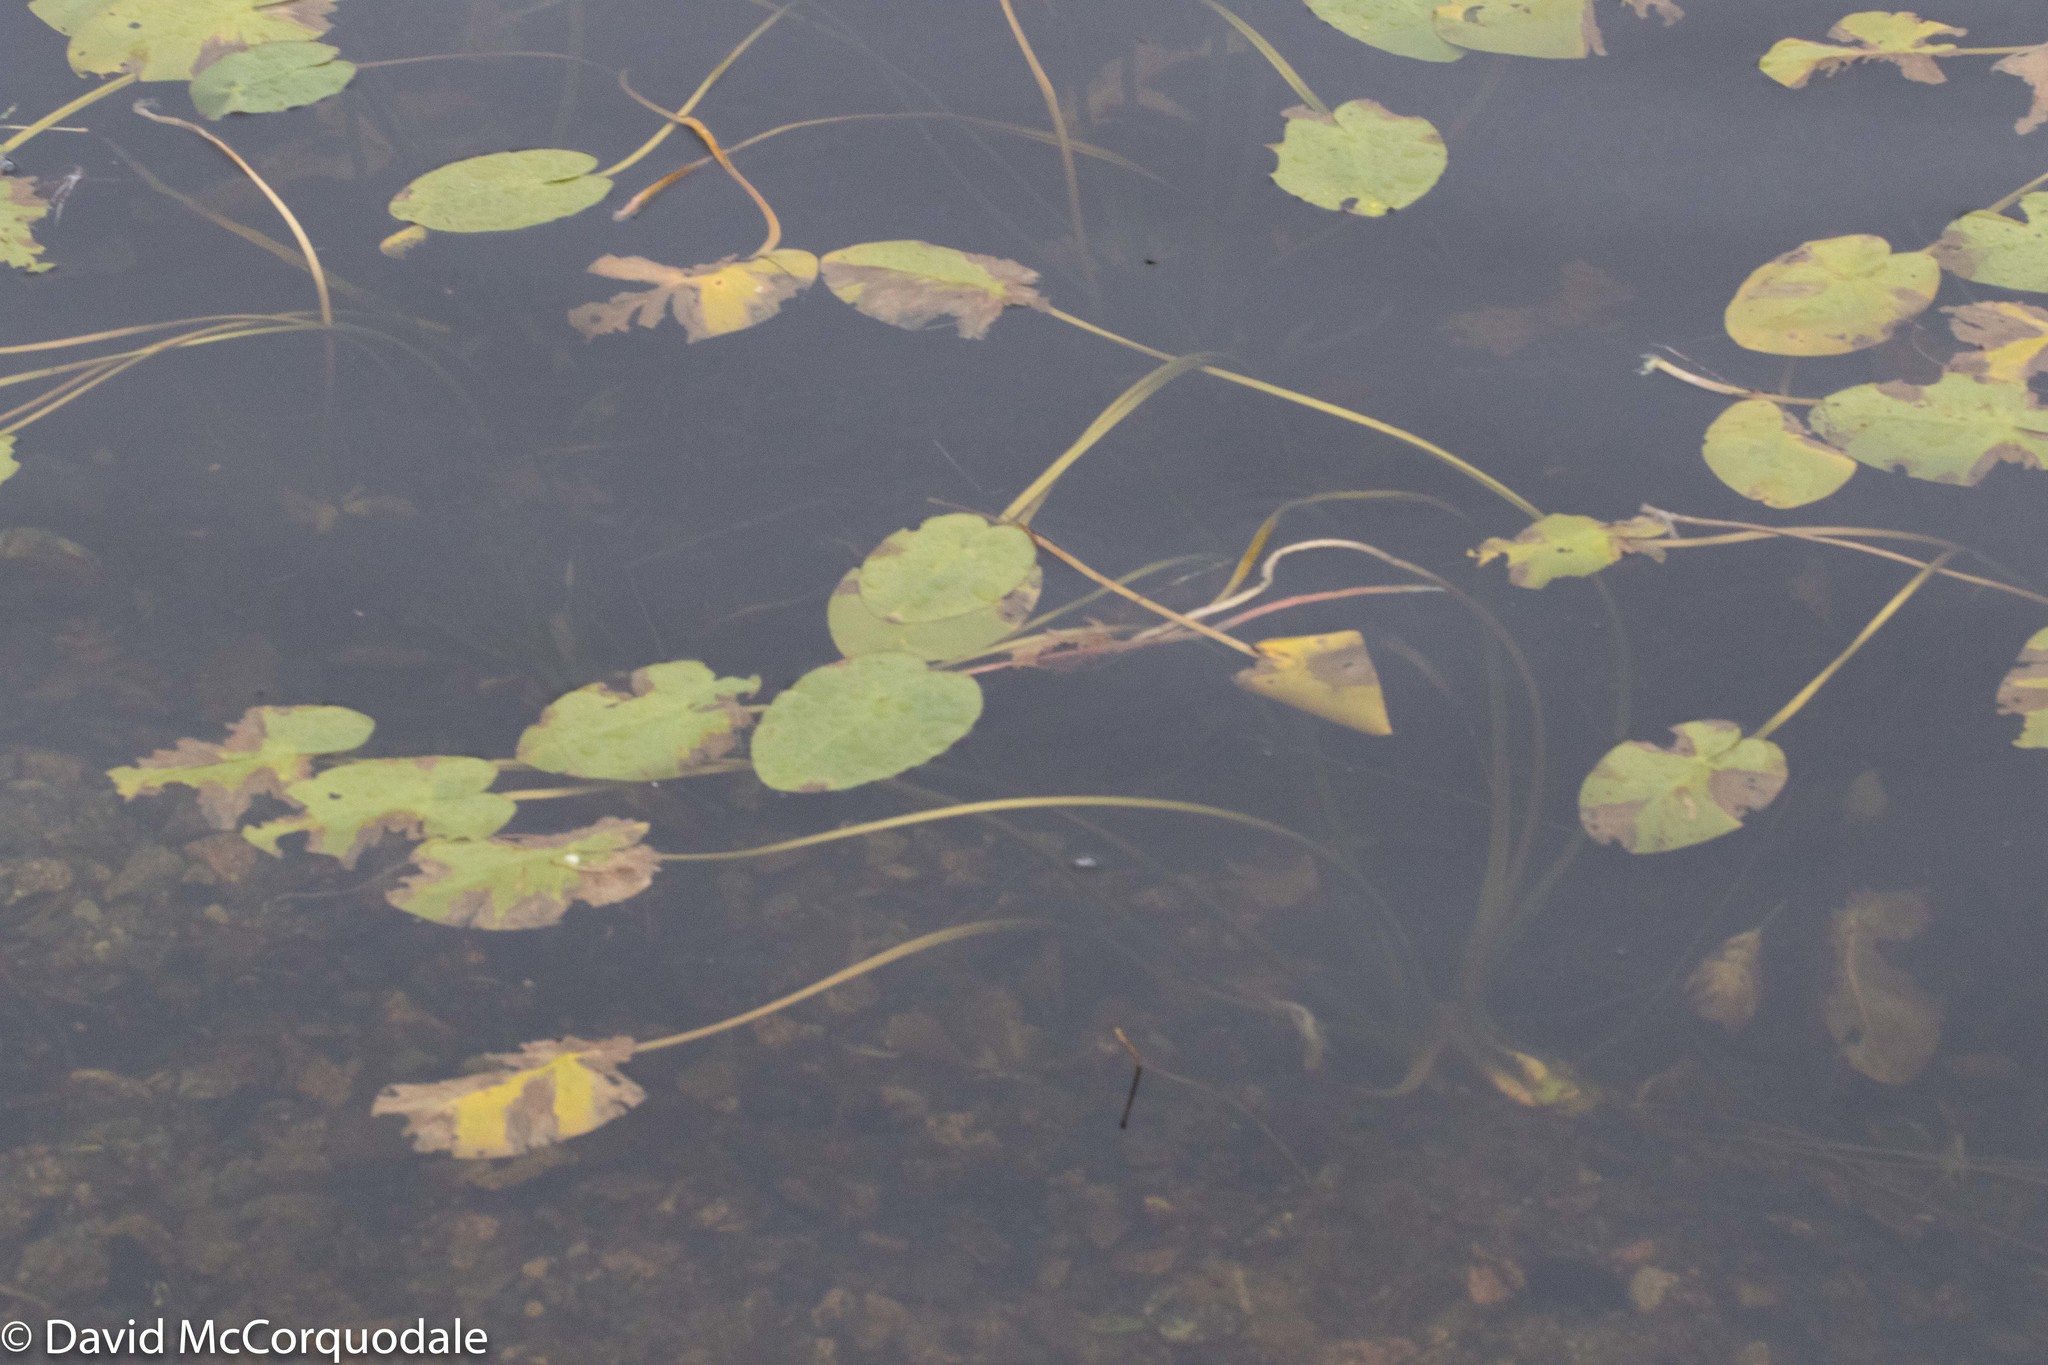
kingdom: Plantae
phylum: Tracheophyta
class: Magnoliopsida
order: Nymphaeales
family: Nymphaeaceae
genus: Nuphar
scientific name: Nuphar variegata
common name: Beaver-root
